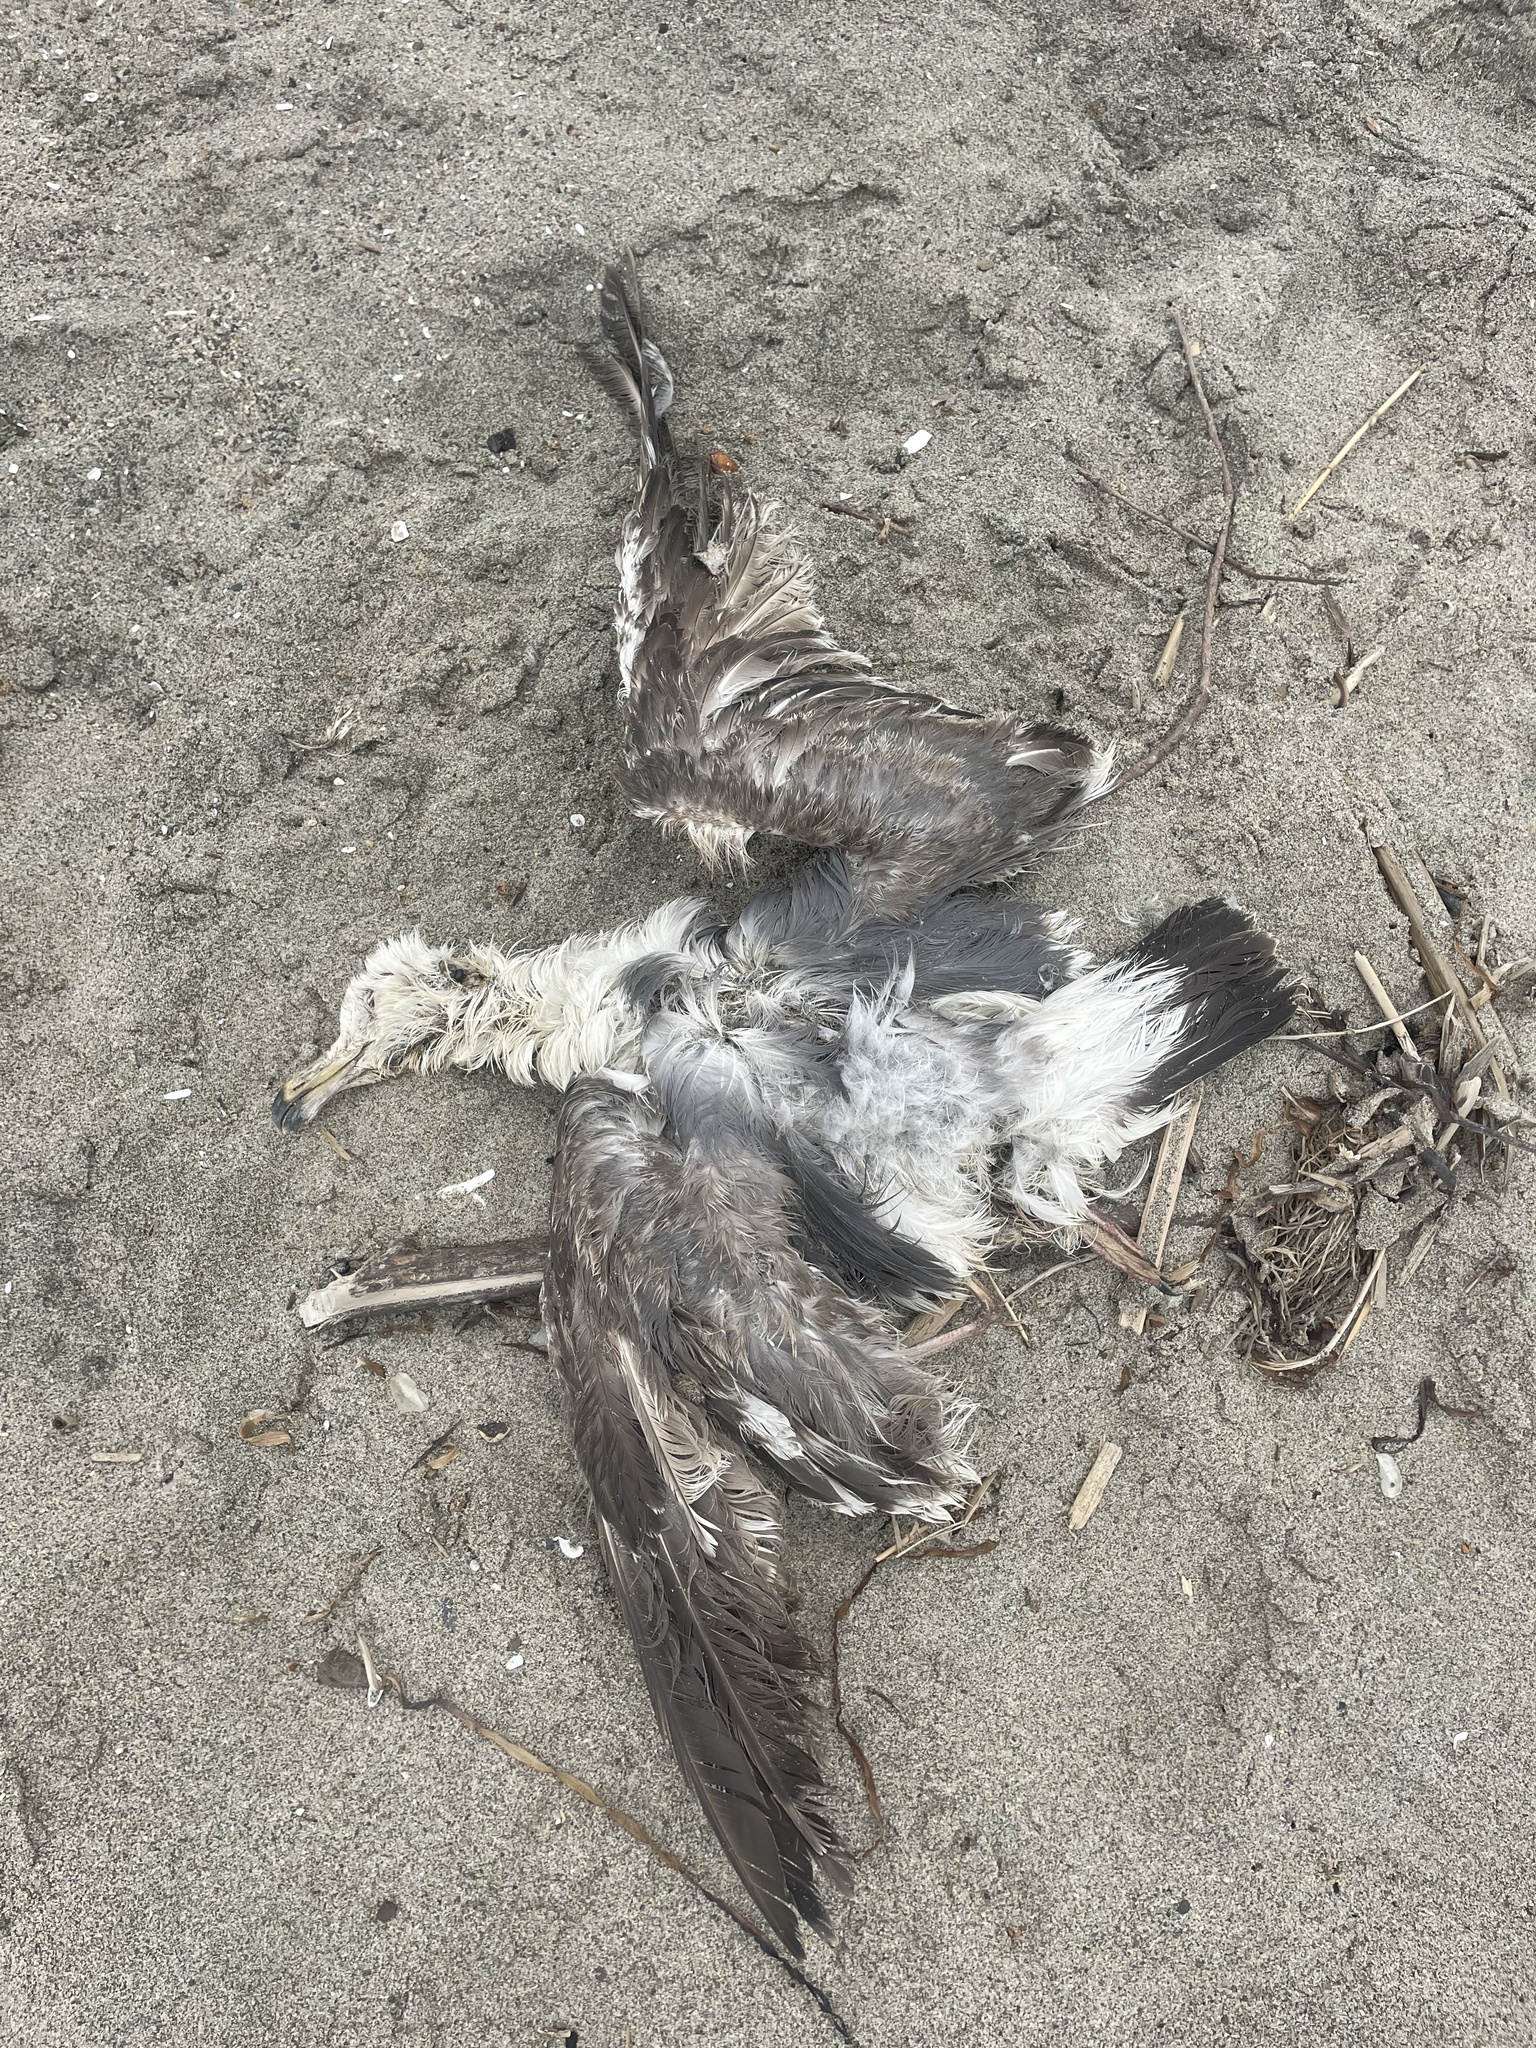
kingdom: Animalia
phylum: Chordata
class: Aves
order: Charadriiformes
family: Laridae
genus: Larus
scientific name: Larus occidentalis
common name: Western gull
